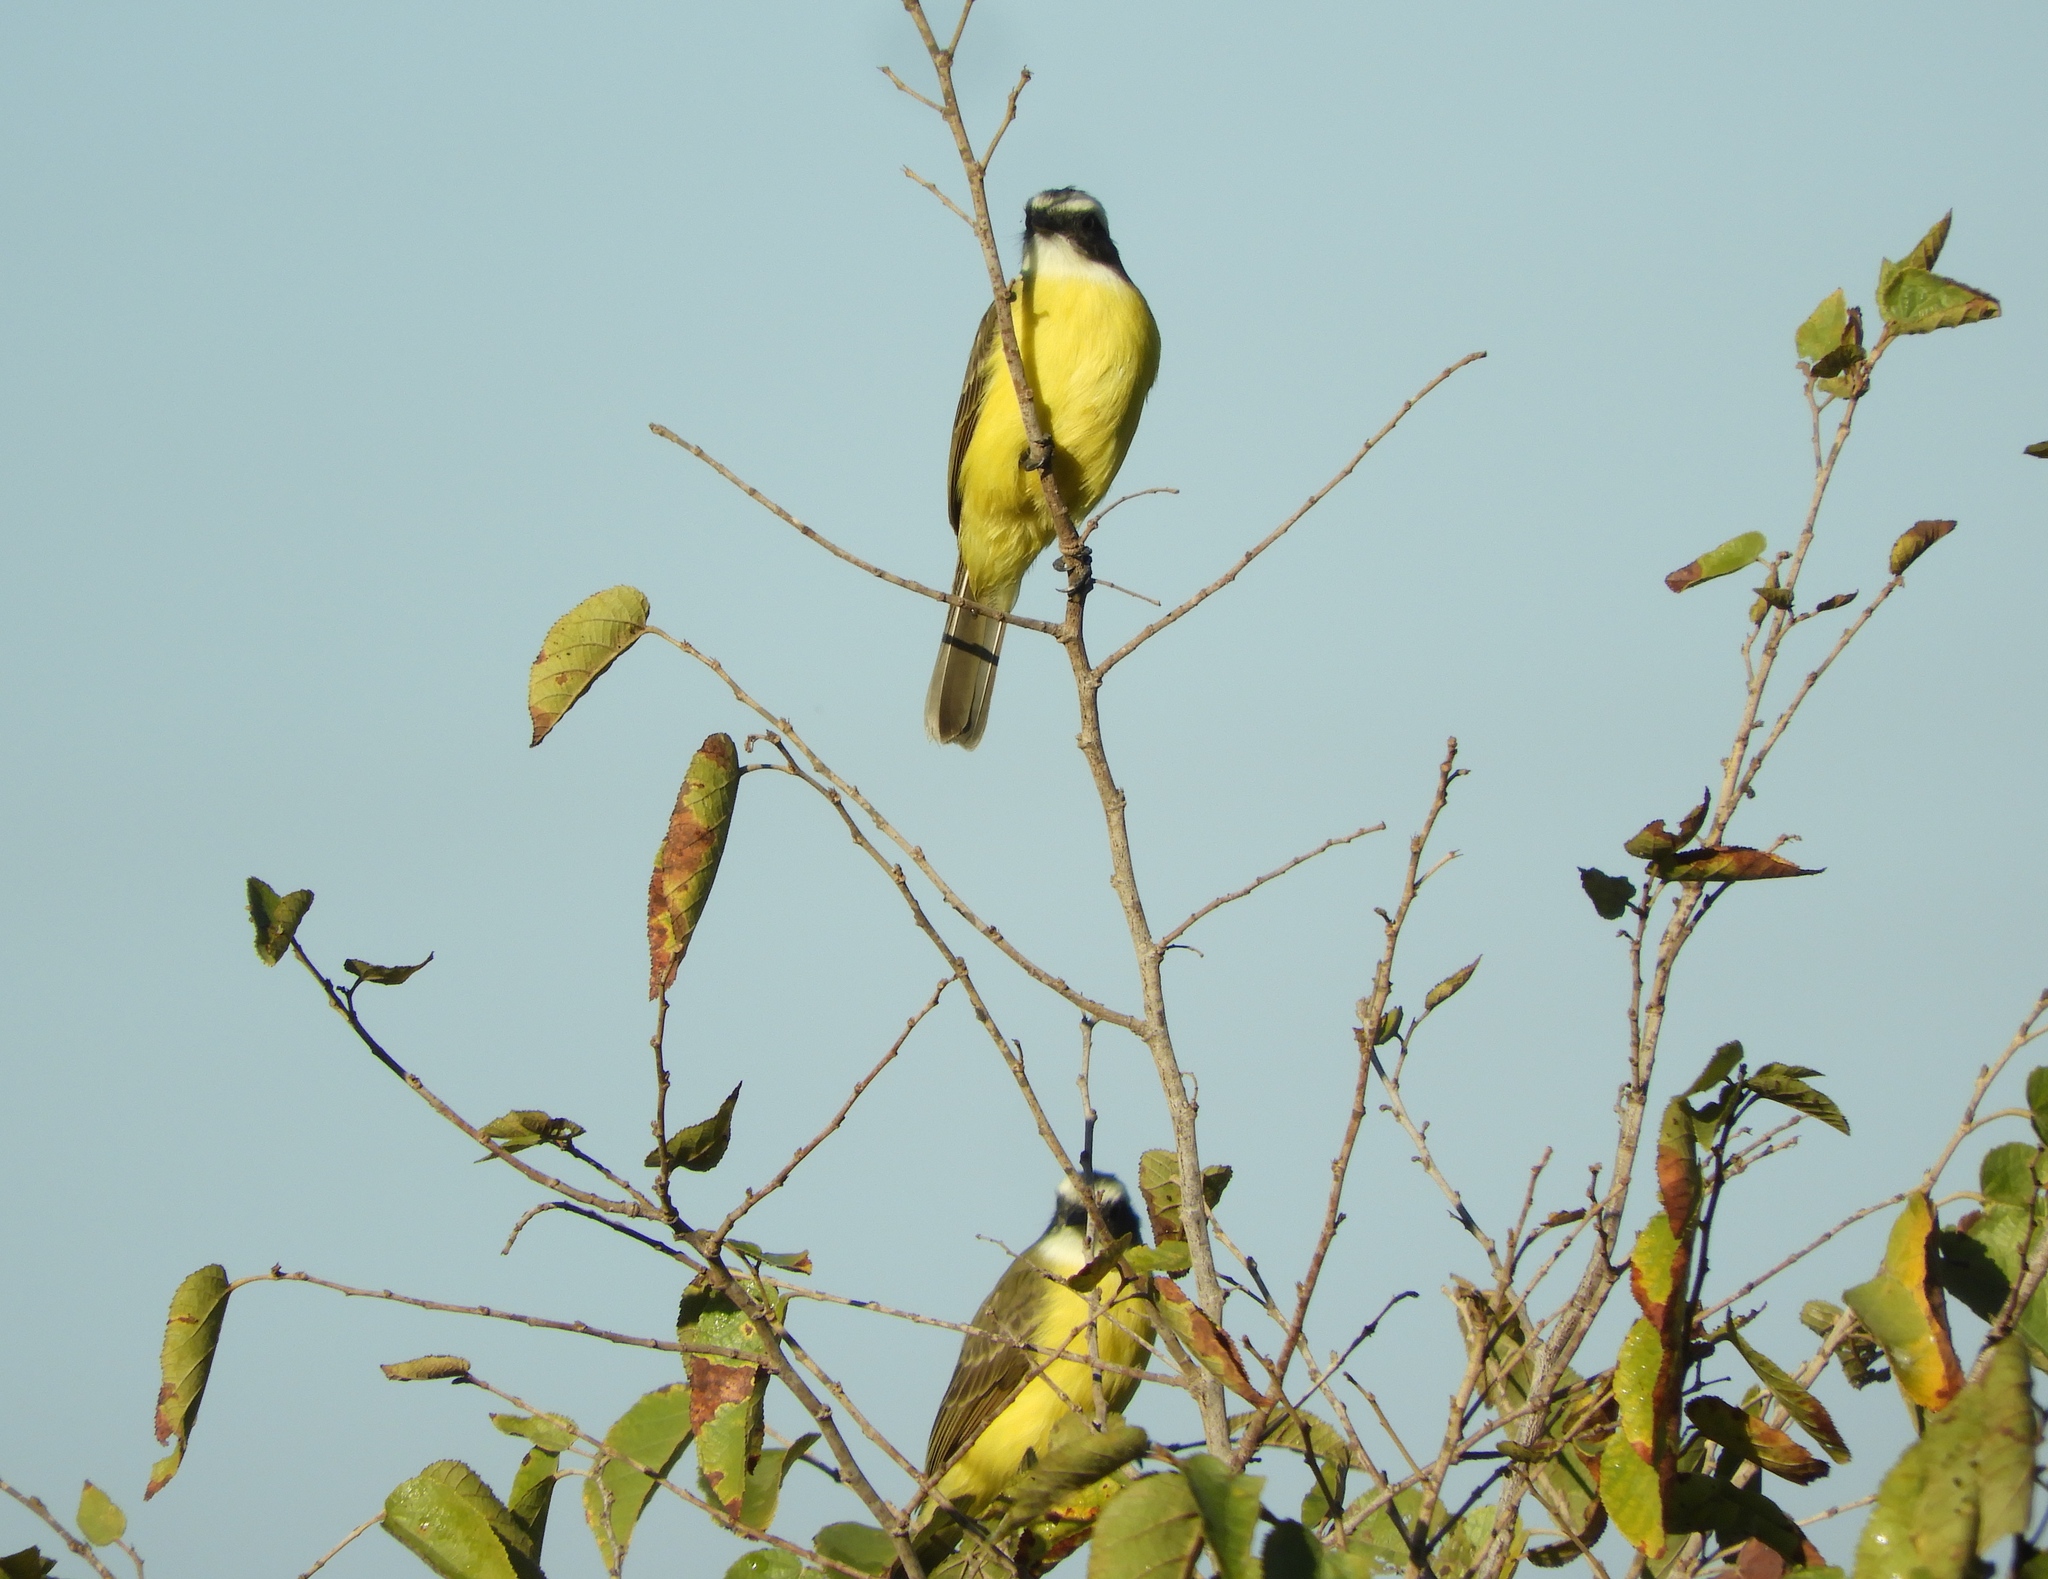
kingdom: Animalia
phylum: Chordata
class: Aves
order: Passeriformes
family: Tyrannidae
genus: Myiozetetes
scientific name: Myiozetetes similis
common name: Social flycatcher
